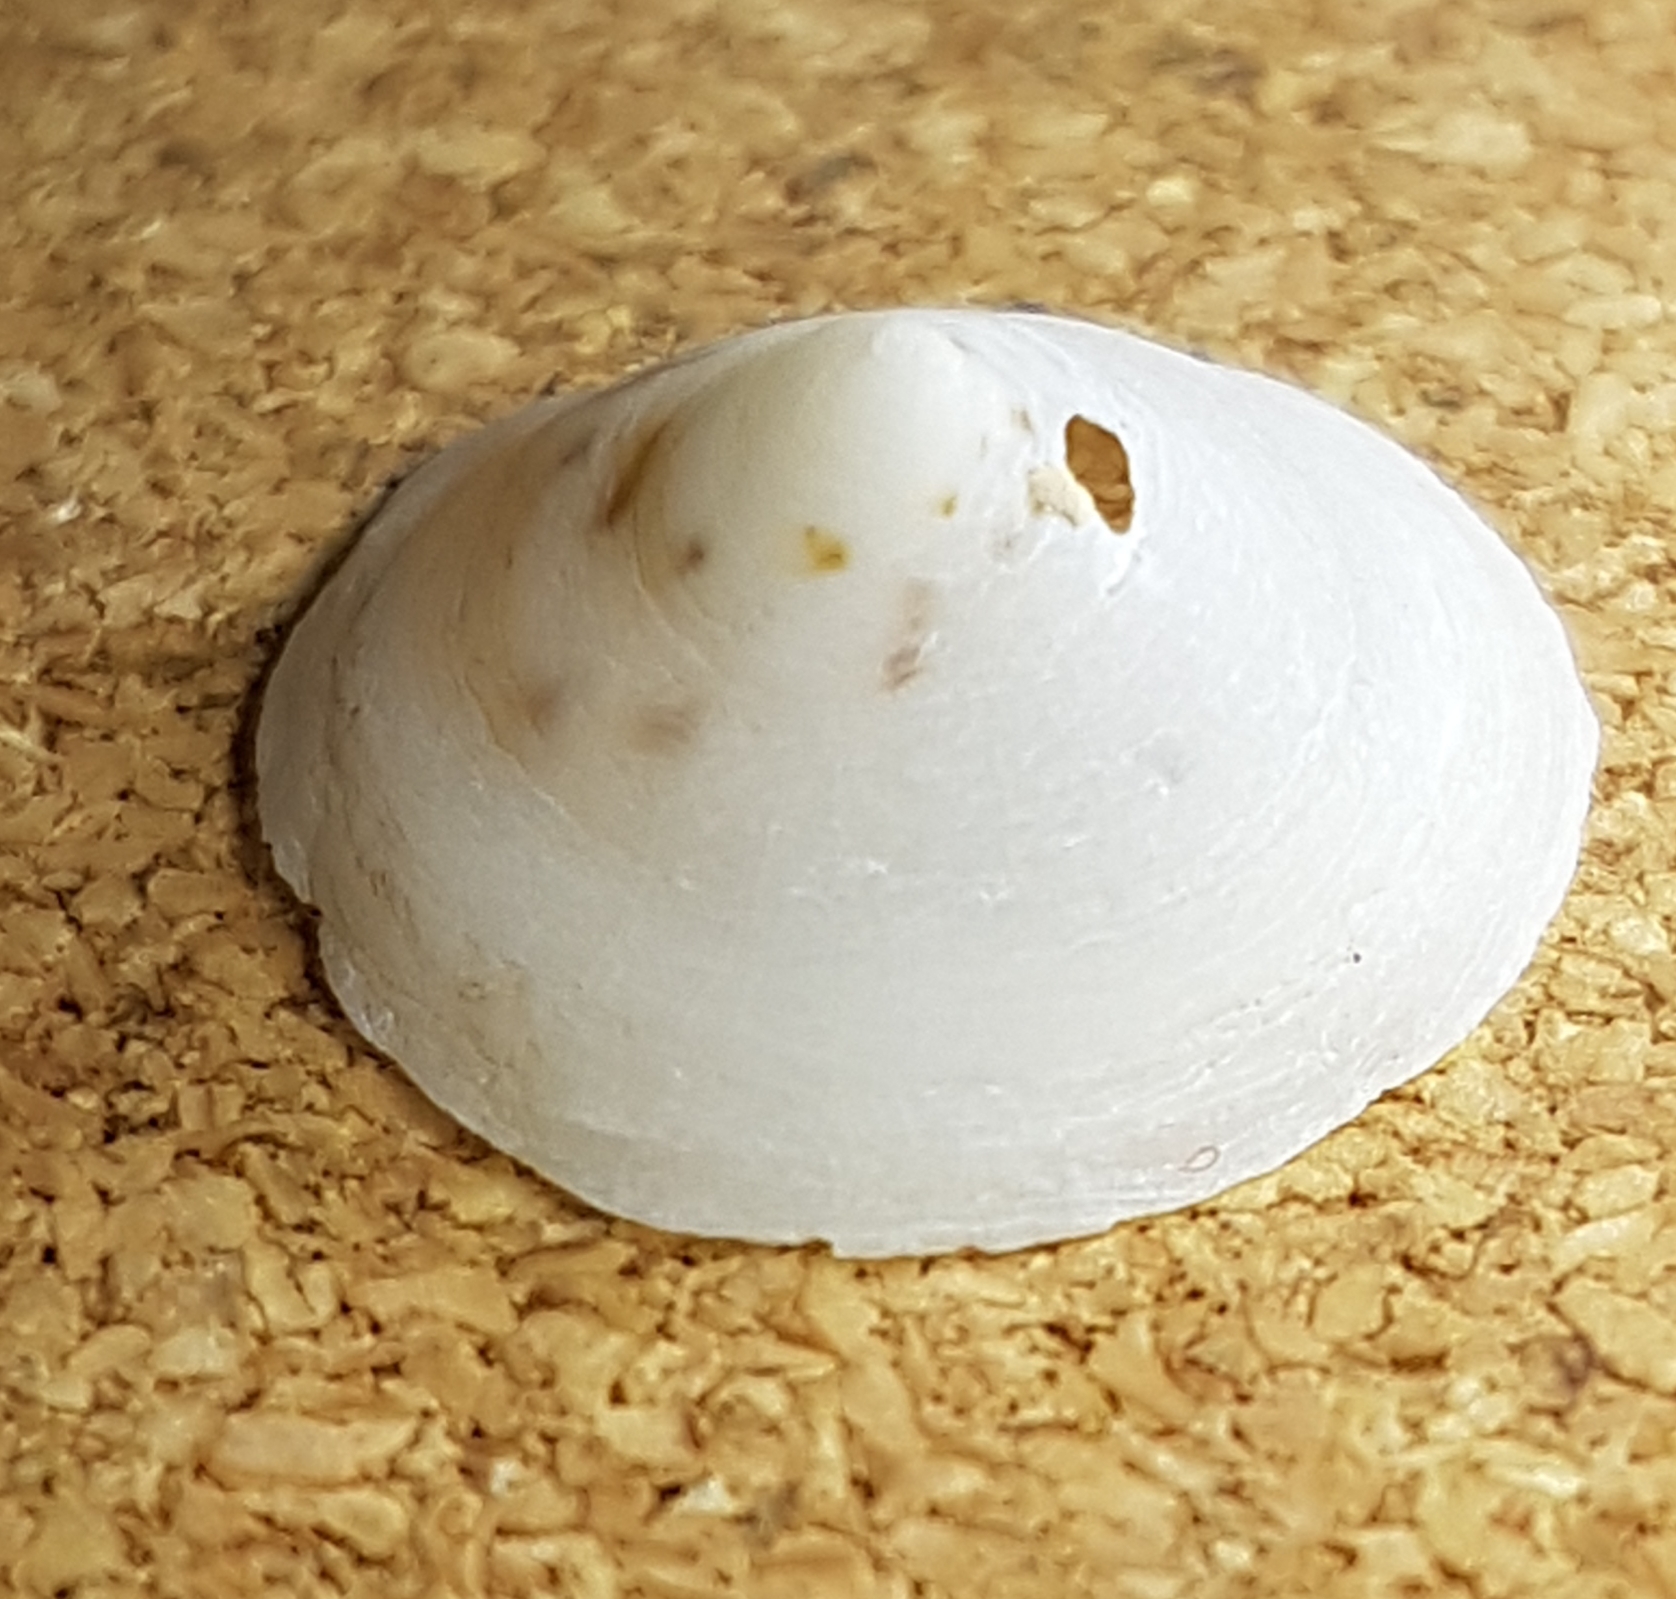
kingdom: Animalia
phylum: Mollusca
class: Gastropoda
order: Littorinimorpha
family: Calyptraeidae
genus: Calyptraea
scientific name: Calyptraea chinensis
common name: Chinaman's hat
